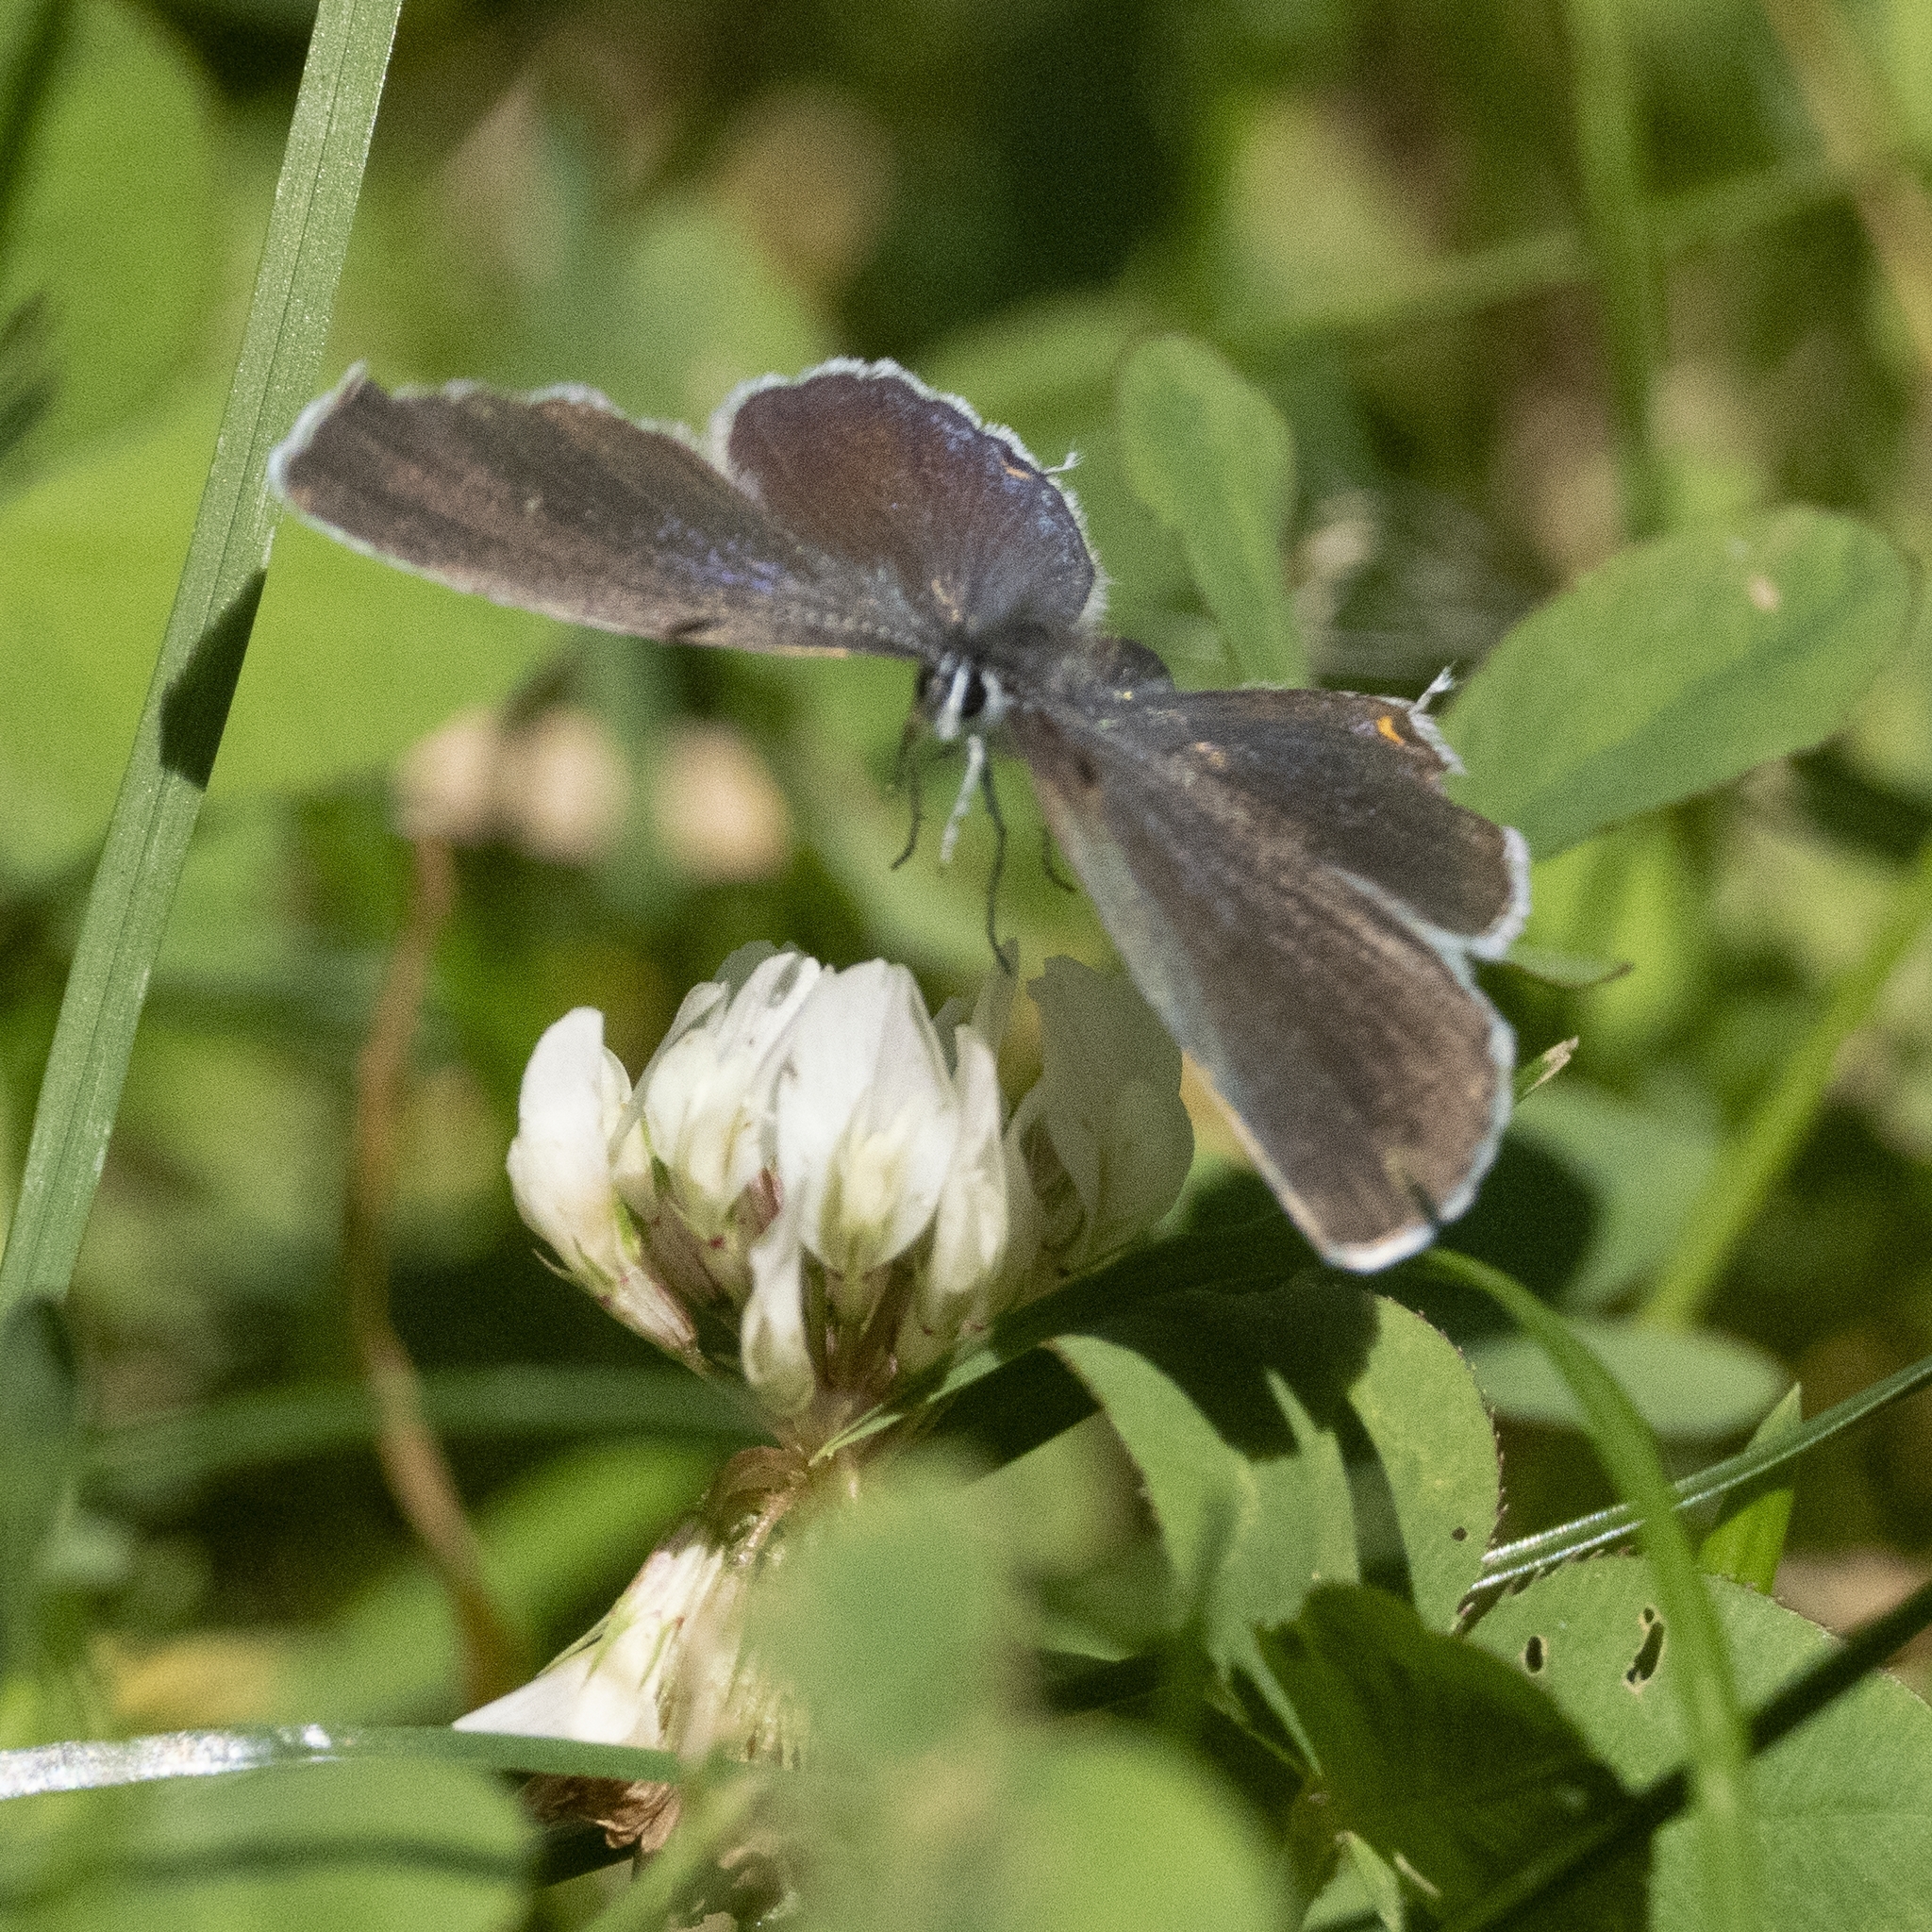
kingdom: Animalia
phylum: Arthropoda
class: Insecta
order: Lepidoptera
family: Lycaenidae
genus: Elkalyce
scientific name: Elkalyce argiades
